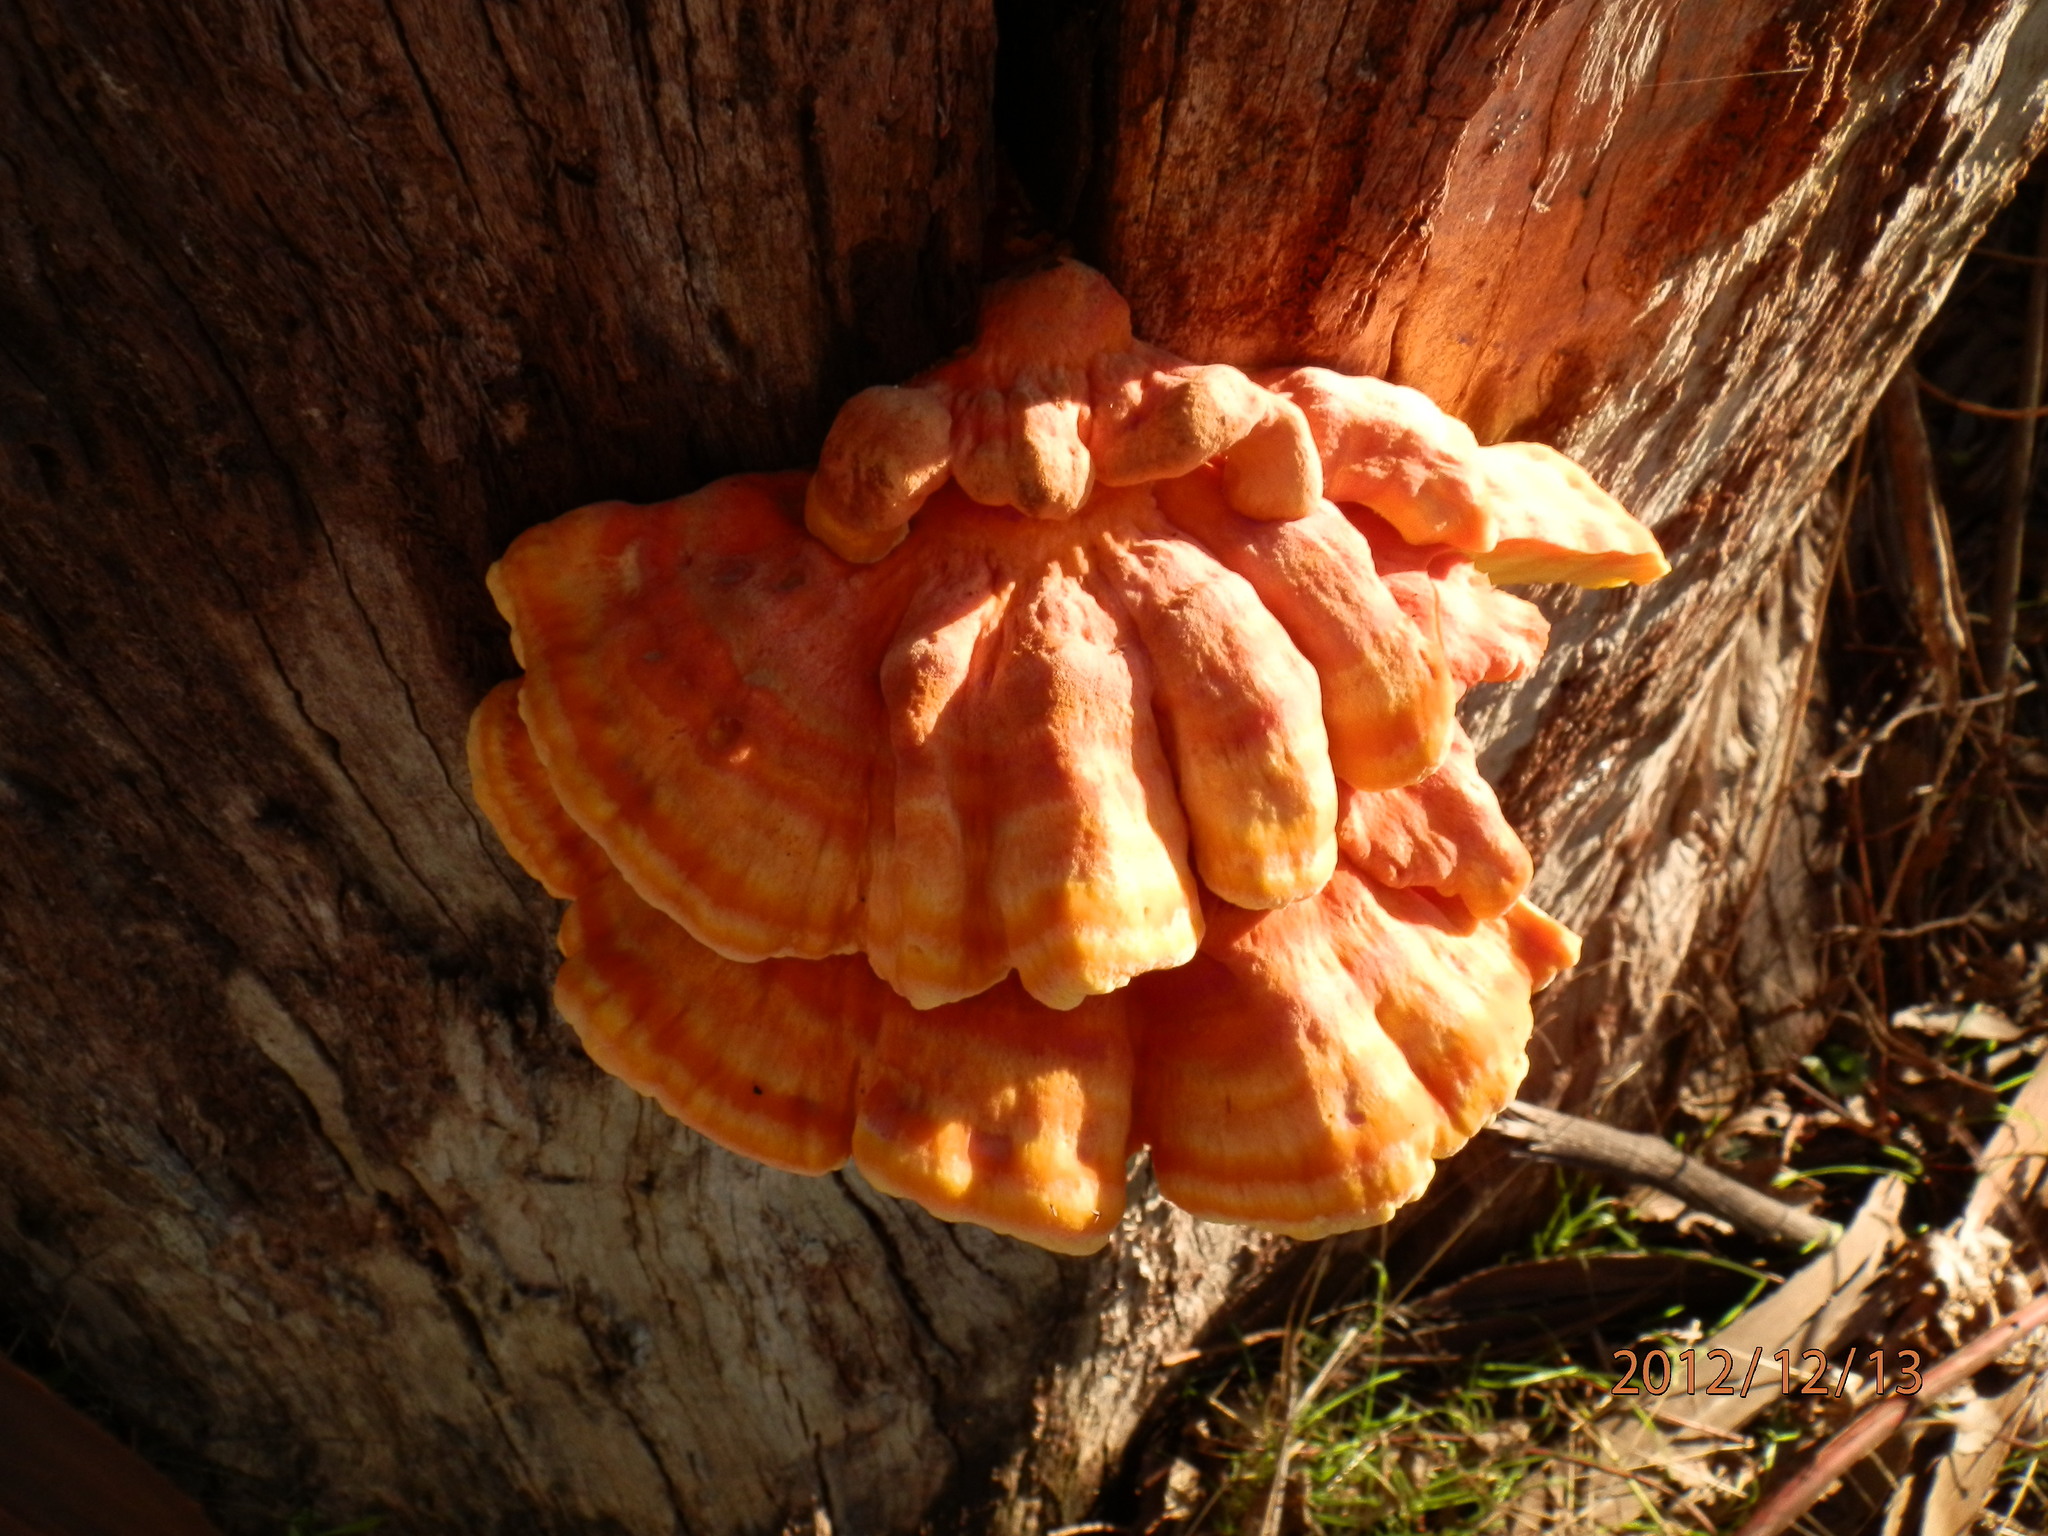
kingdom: Fungi
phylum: Basidiomycota
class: Agaricomycetes
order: Polyporales
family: Laetiporaceae
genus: Laetiporus
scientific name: Laetiporus gilbertsonii
